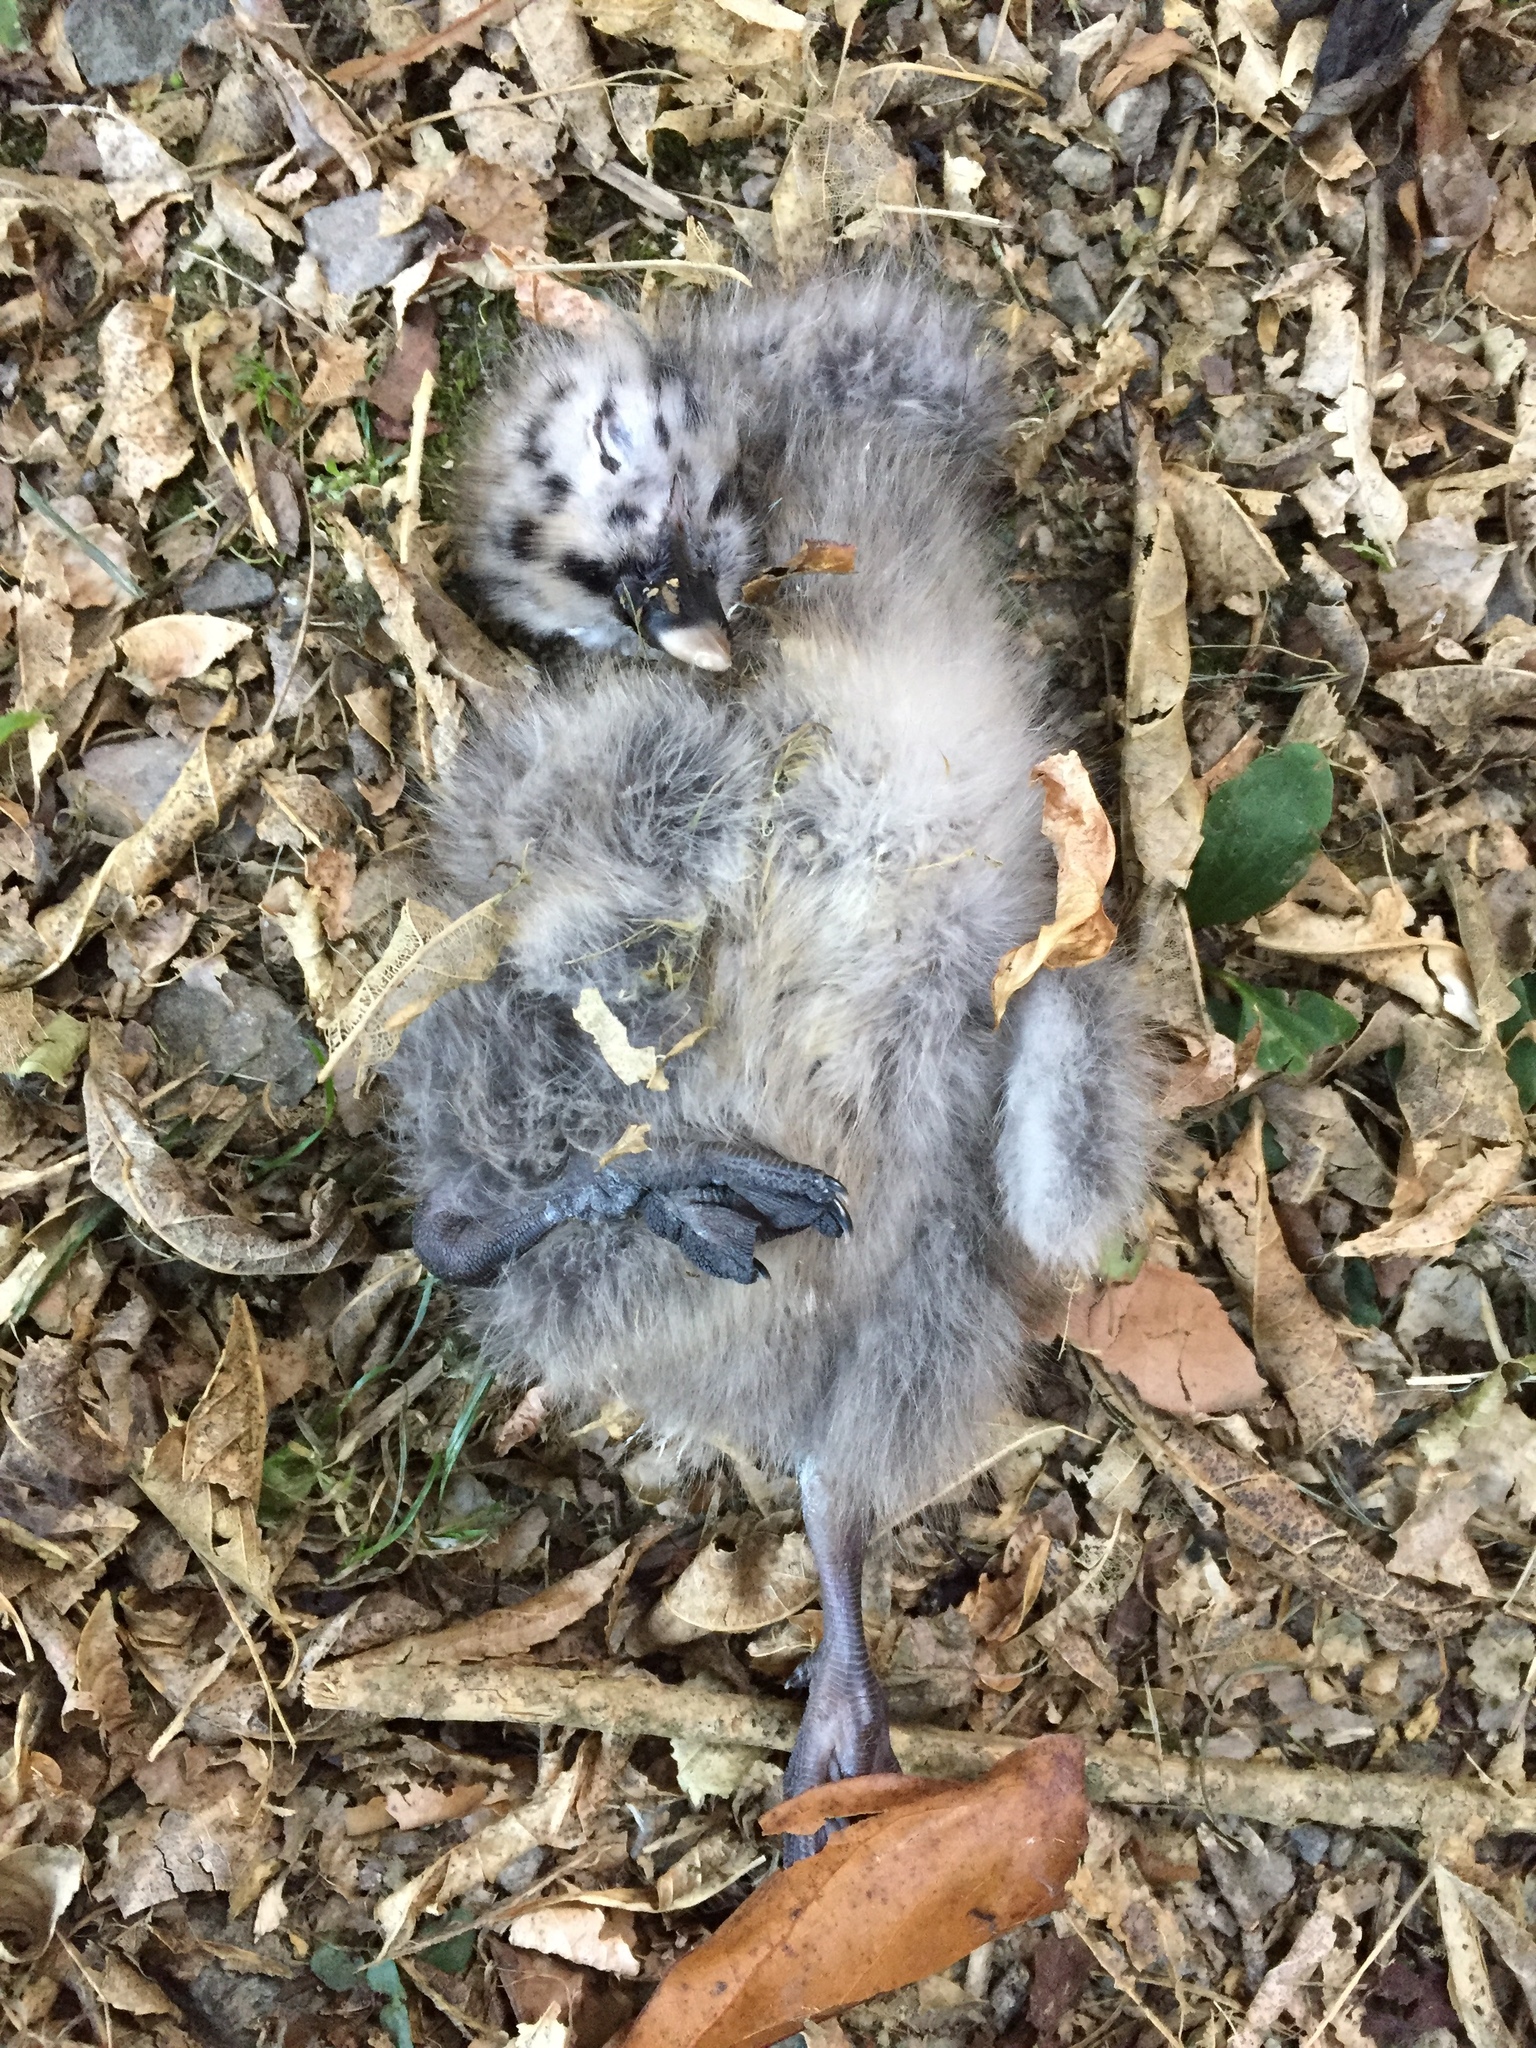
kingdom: Animalia
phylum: Chordata
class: Aves
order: Charadriiformes
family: Laridae
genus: Larus
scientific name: Larus dominicanus
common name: Kelp gull
